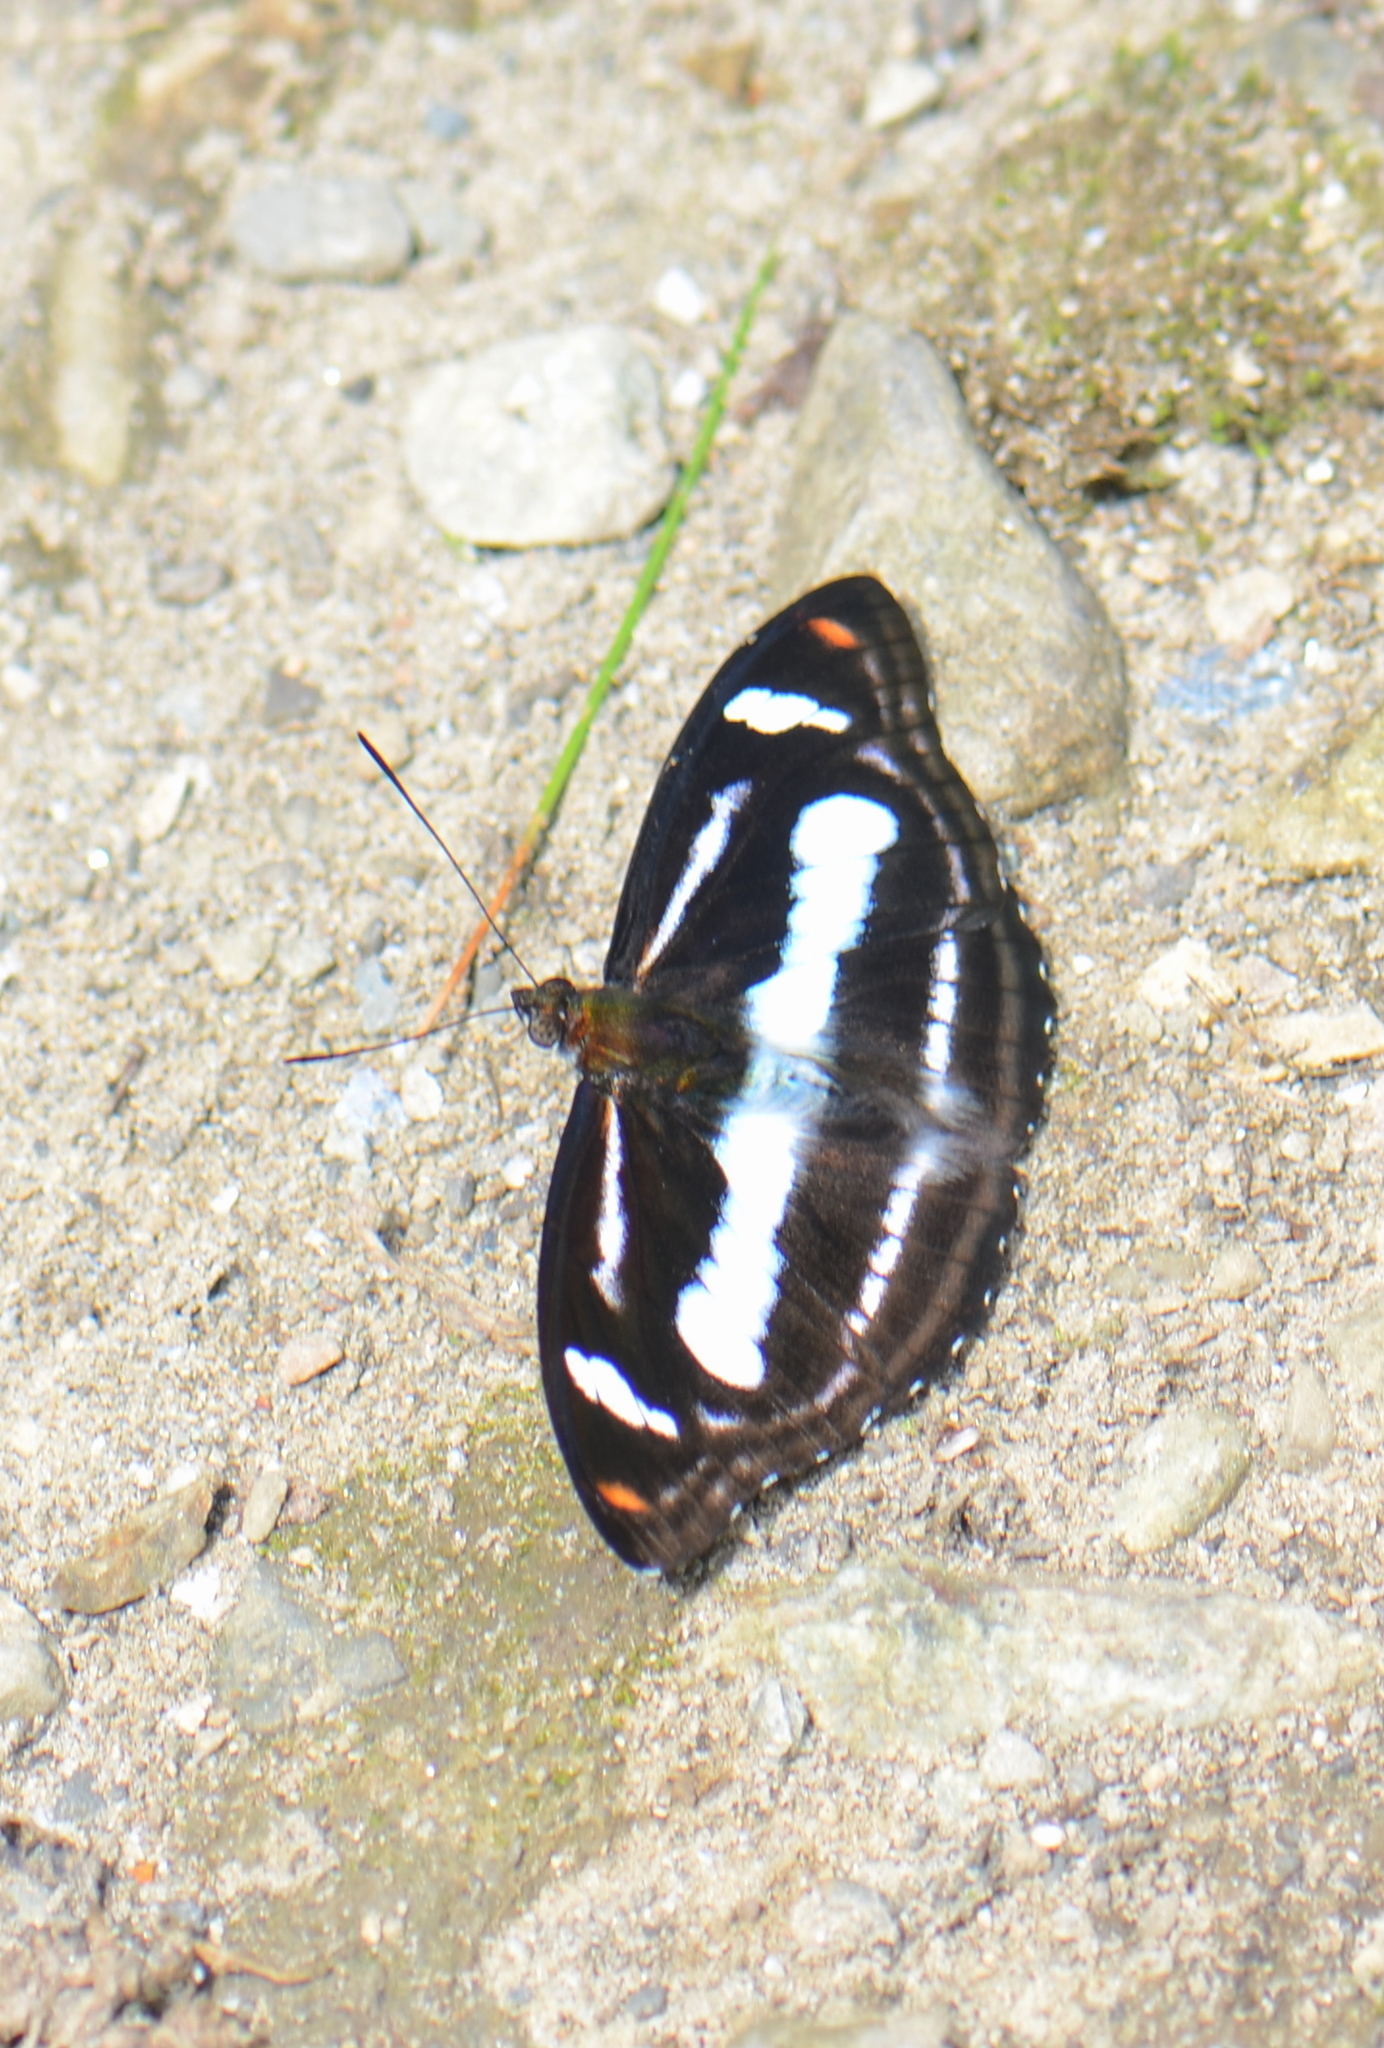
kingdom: Animalia
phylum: Arthropoda
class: Insecta
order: Lepidoptera
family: Nymphalidae
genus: Pantoporia
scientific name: Pantoporia cama
